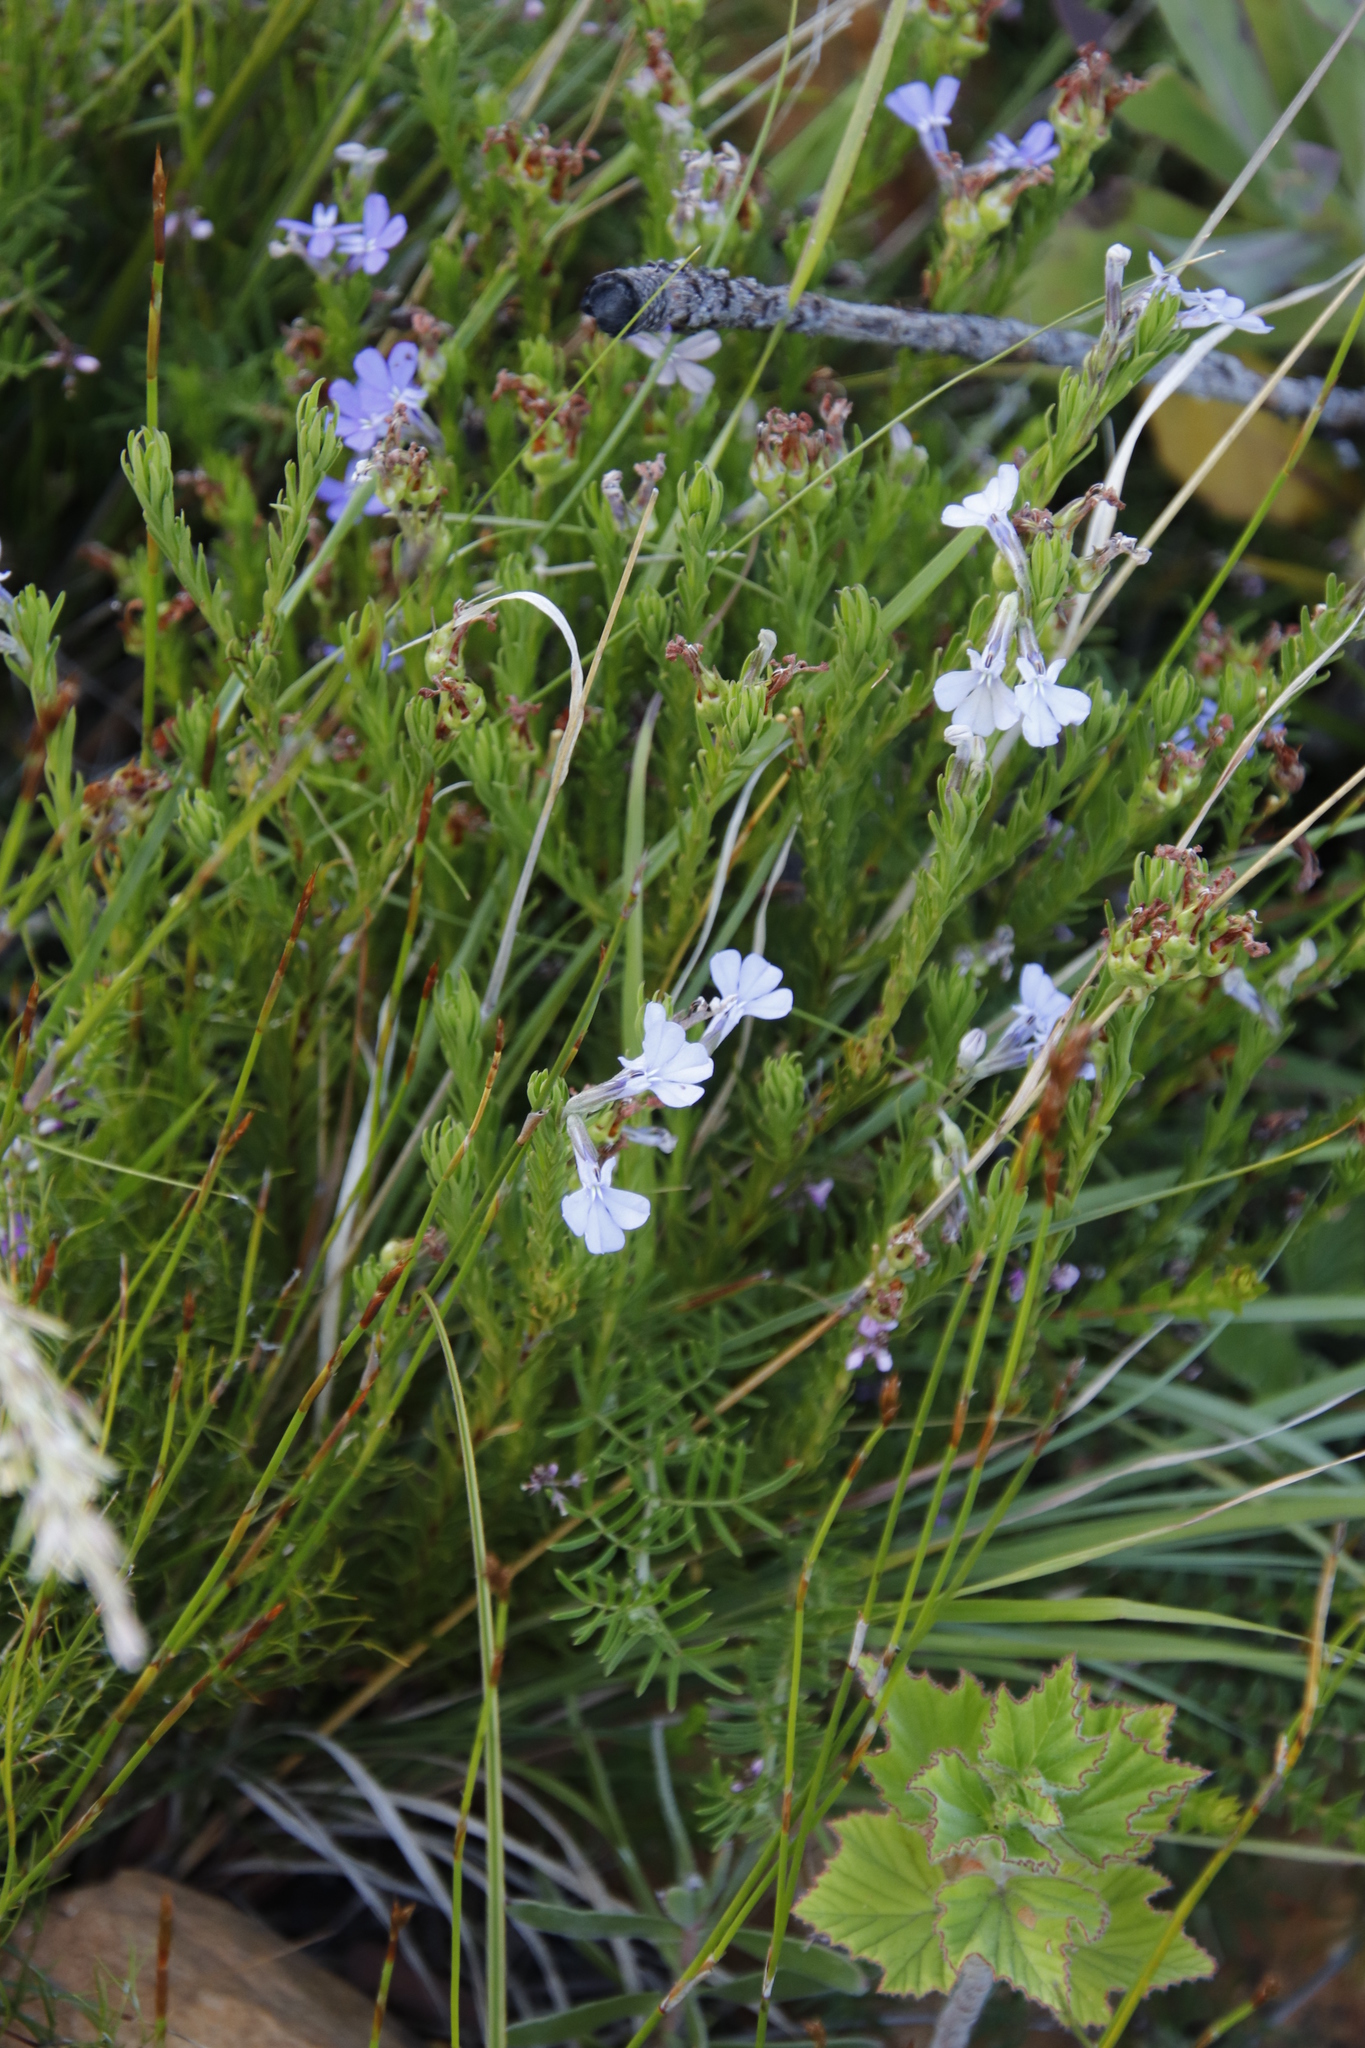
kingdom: Plantae
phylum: Tracheophyta
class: Magnoliopsida
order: Asterales
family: Campanulaceae
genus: Lobelia
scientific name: Lobelia pinifolia
